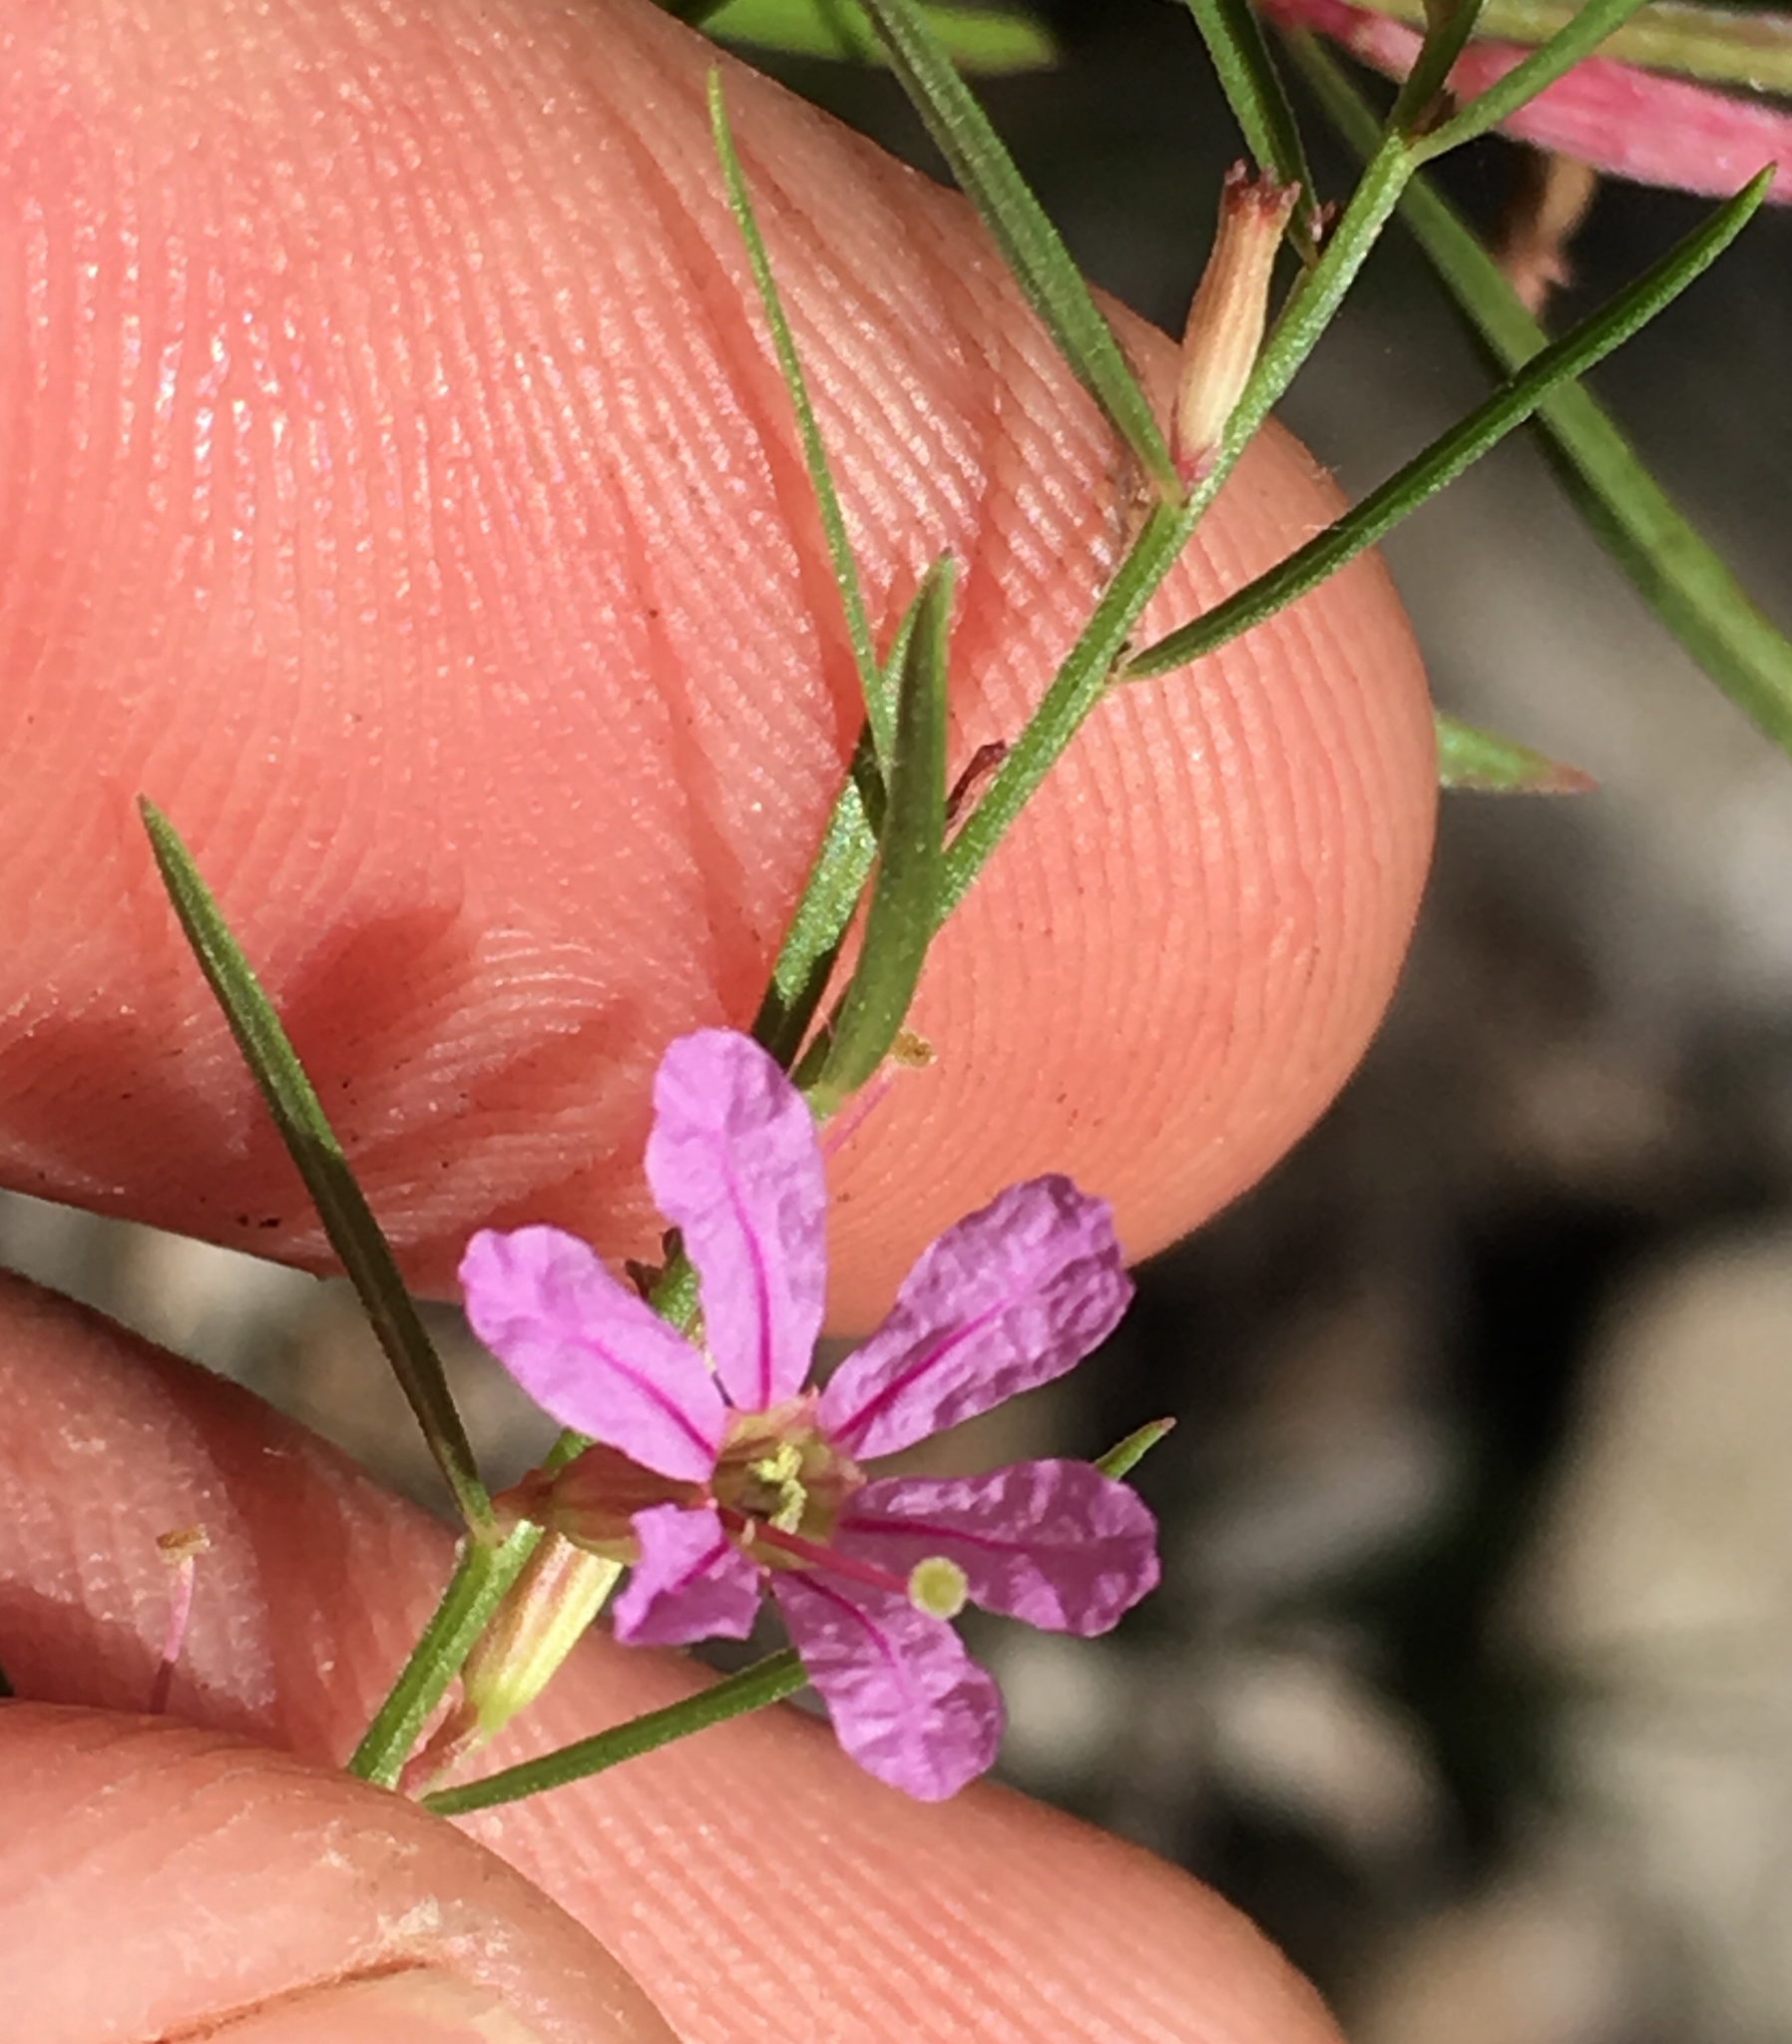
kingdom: Plantae
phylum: Tracheophyta
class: Magnoliopsida
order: Myrtales
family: Lythraceae
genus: Lythrum
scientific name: Lythrum californicum
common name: California loosestrife
